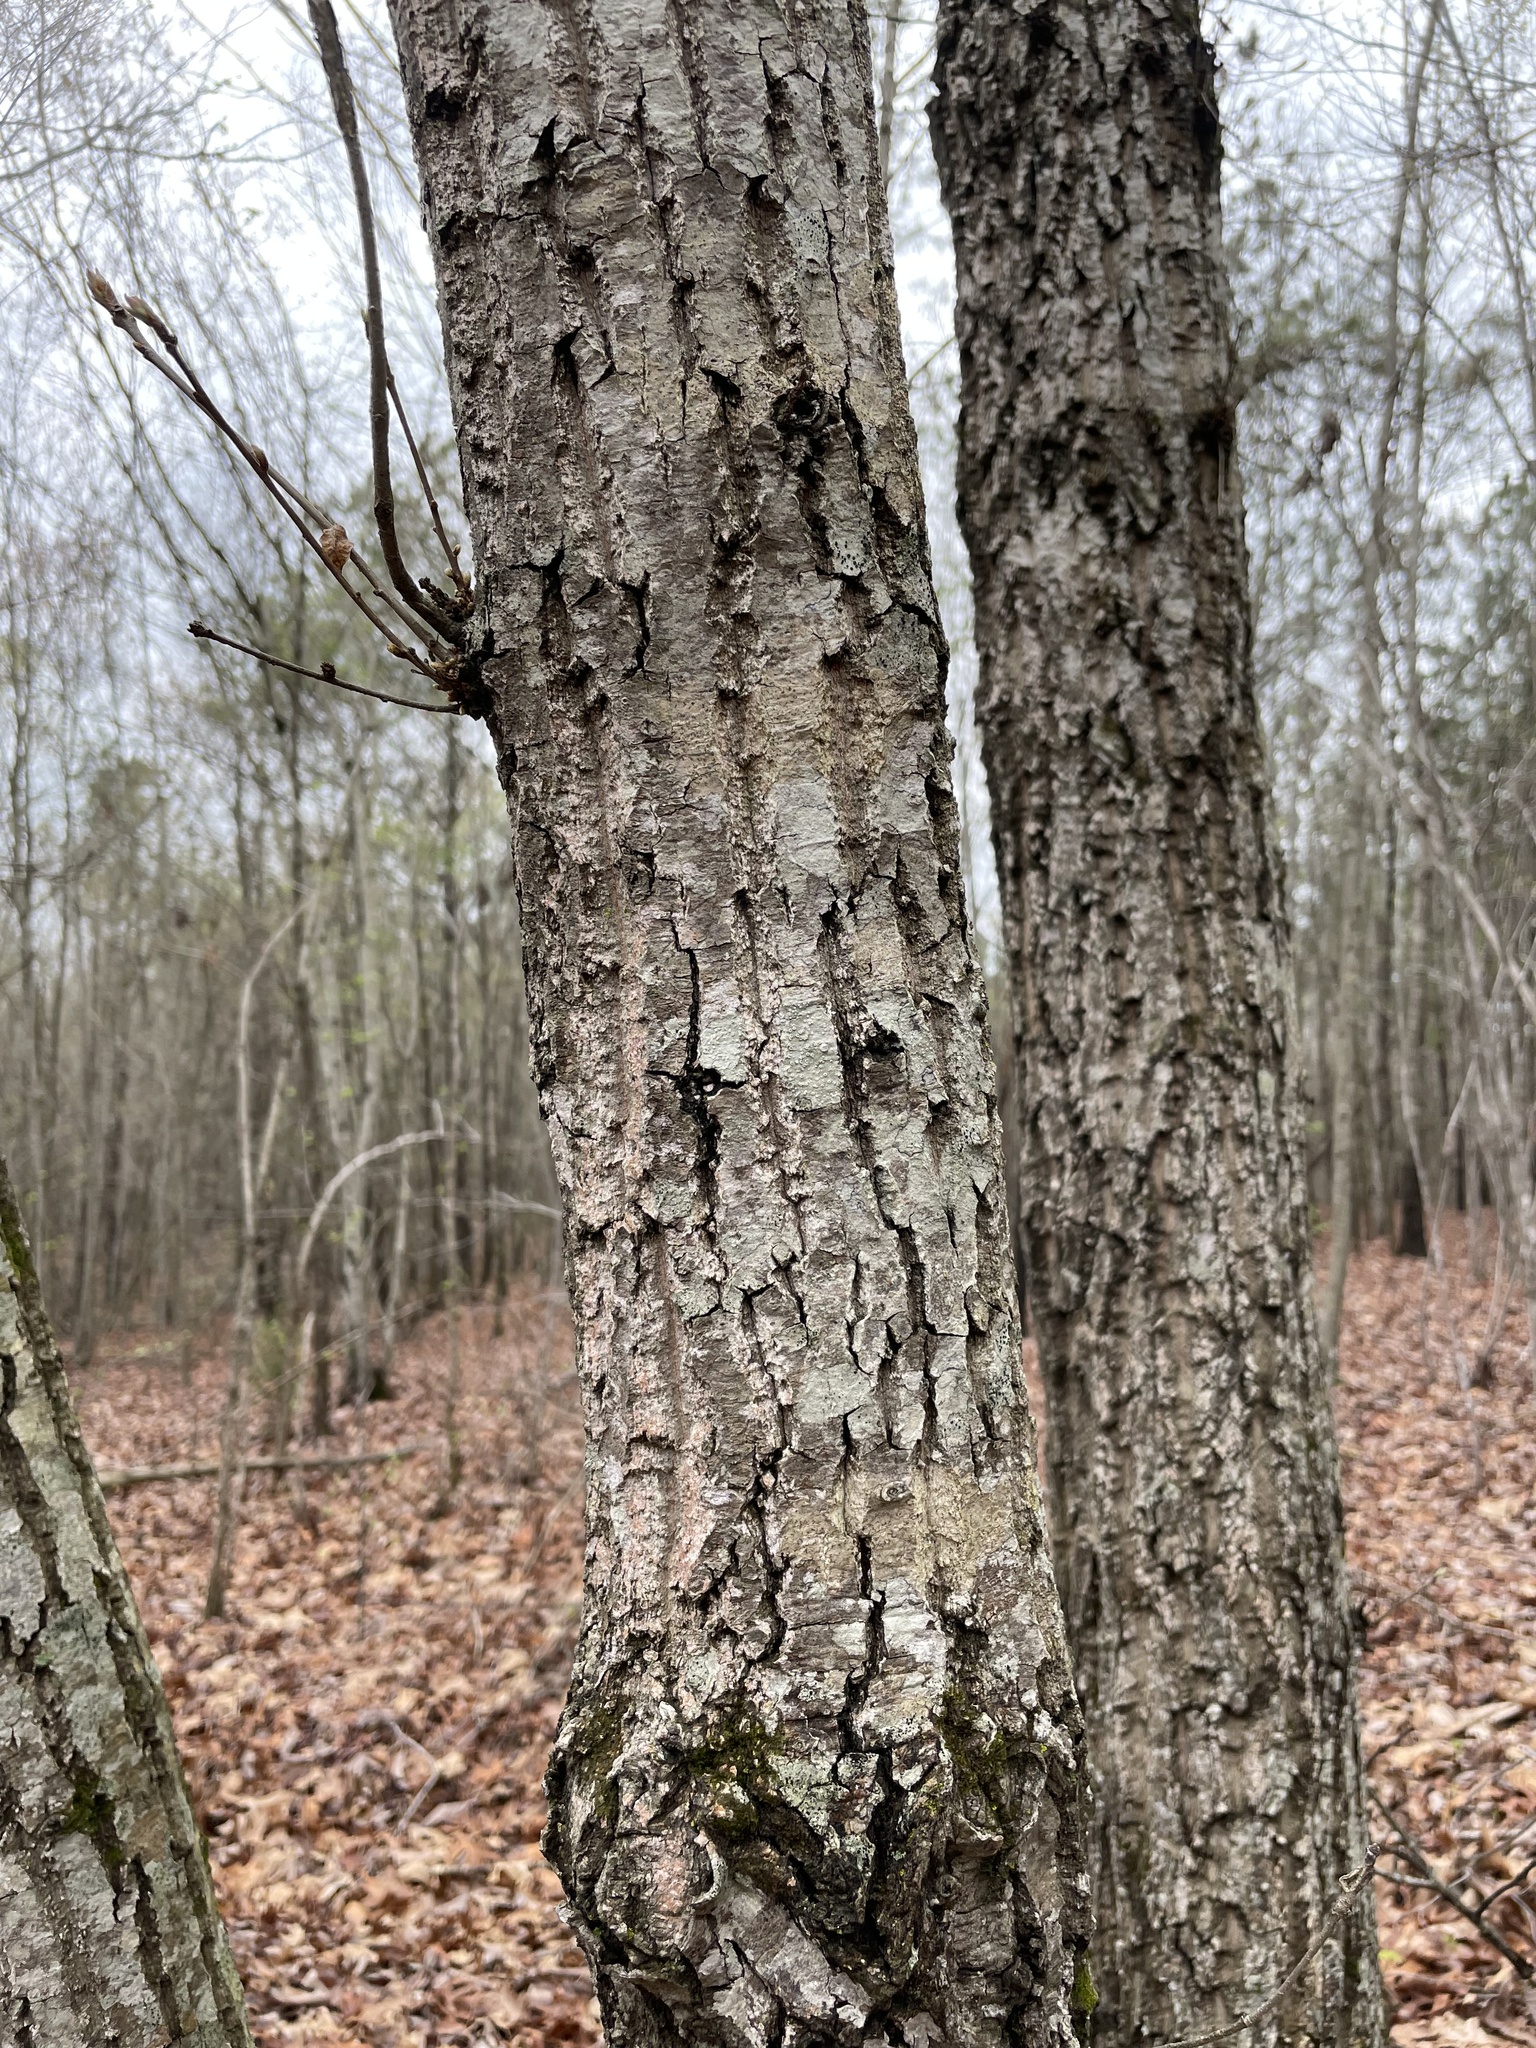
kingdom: Plantae
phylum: Tracheophyta
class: Magnoliopsida
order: Fagales
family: Fagaceae
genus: Quercus
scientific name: Quercus montana
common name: Chestnut oak
